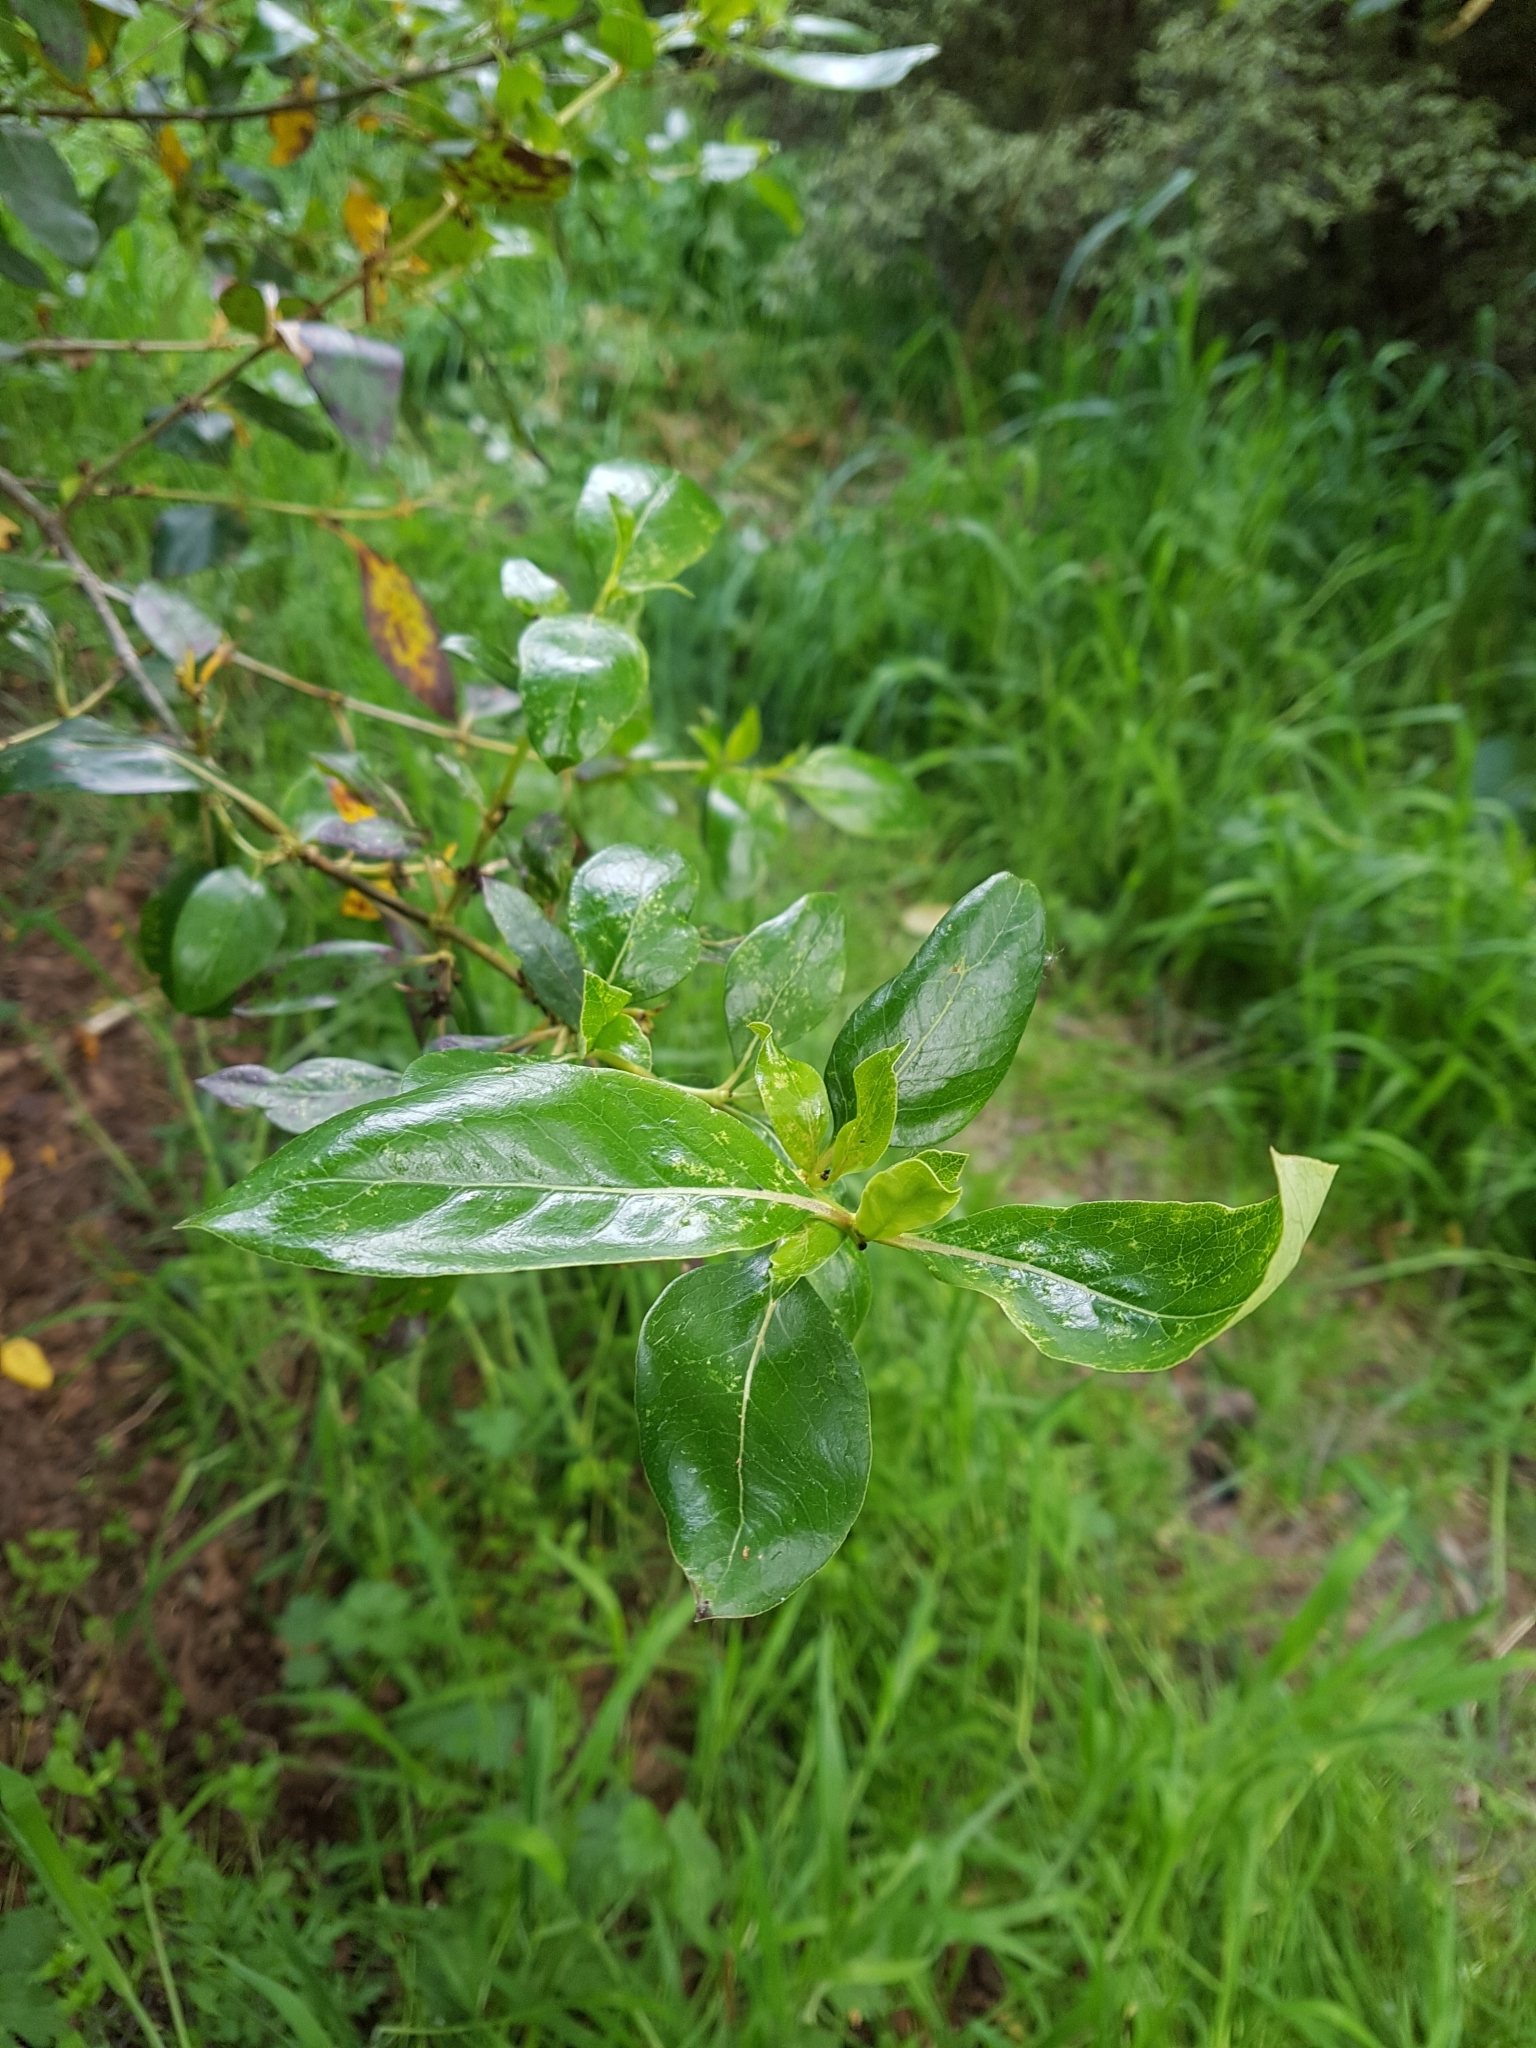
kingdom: Plantae
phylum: Tracheophyta
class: Magnoliopsida
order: Gentianales
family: Rubiaceae
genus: Coprosma
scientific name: Coprosma robusta
